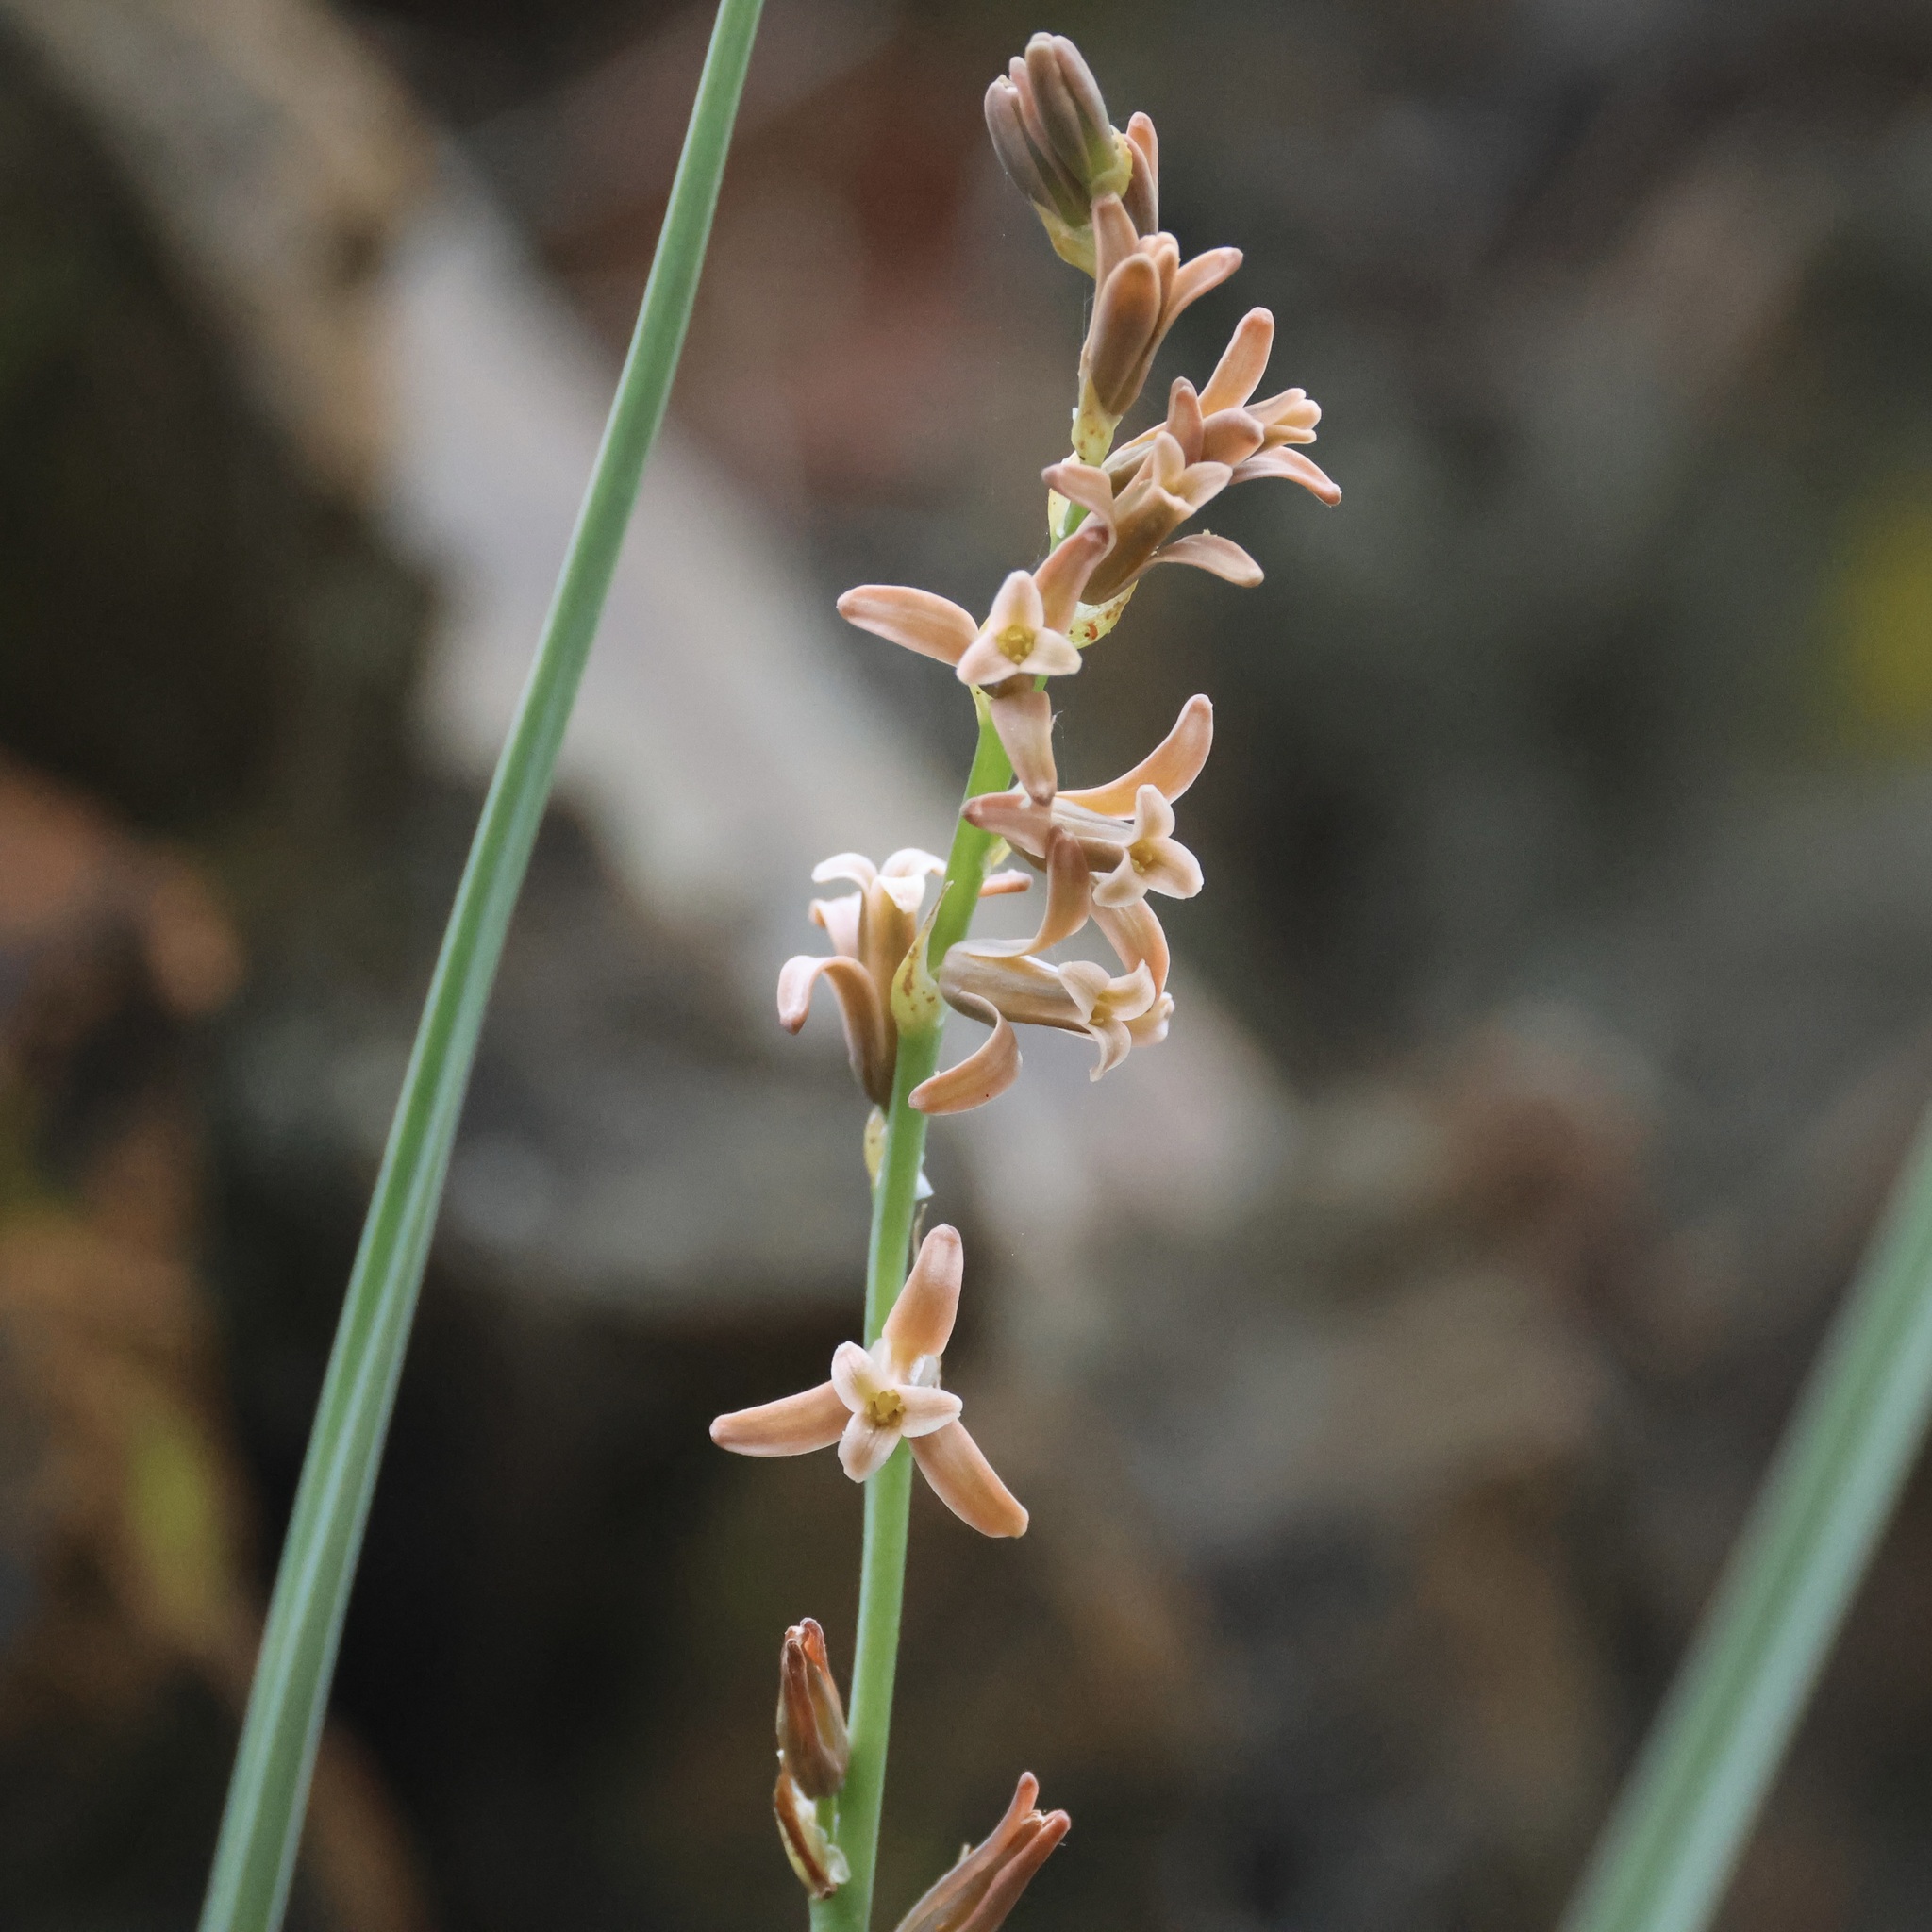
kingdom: Plantae
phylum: Tracheophyta
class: Liliopsida
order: Asparagales
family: Asparagaceae
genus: Dipcadi
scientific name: Dipcadi serotinum
